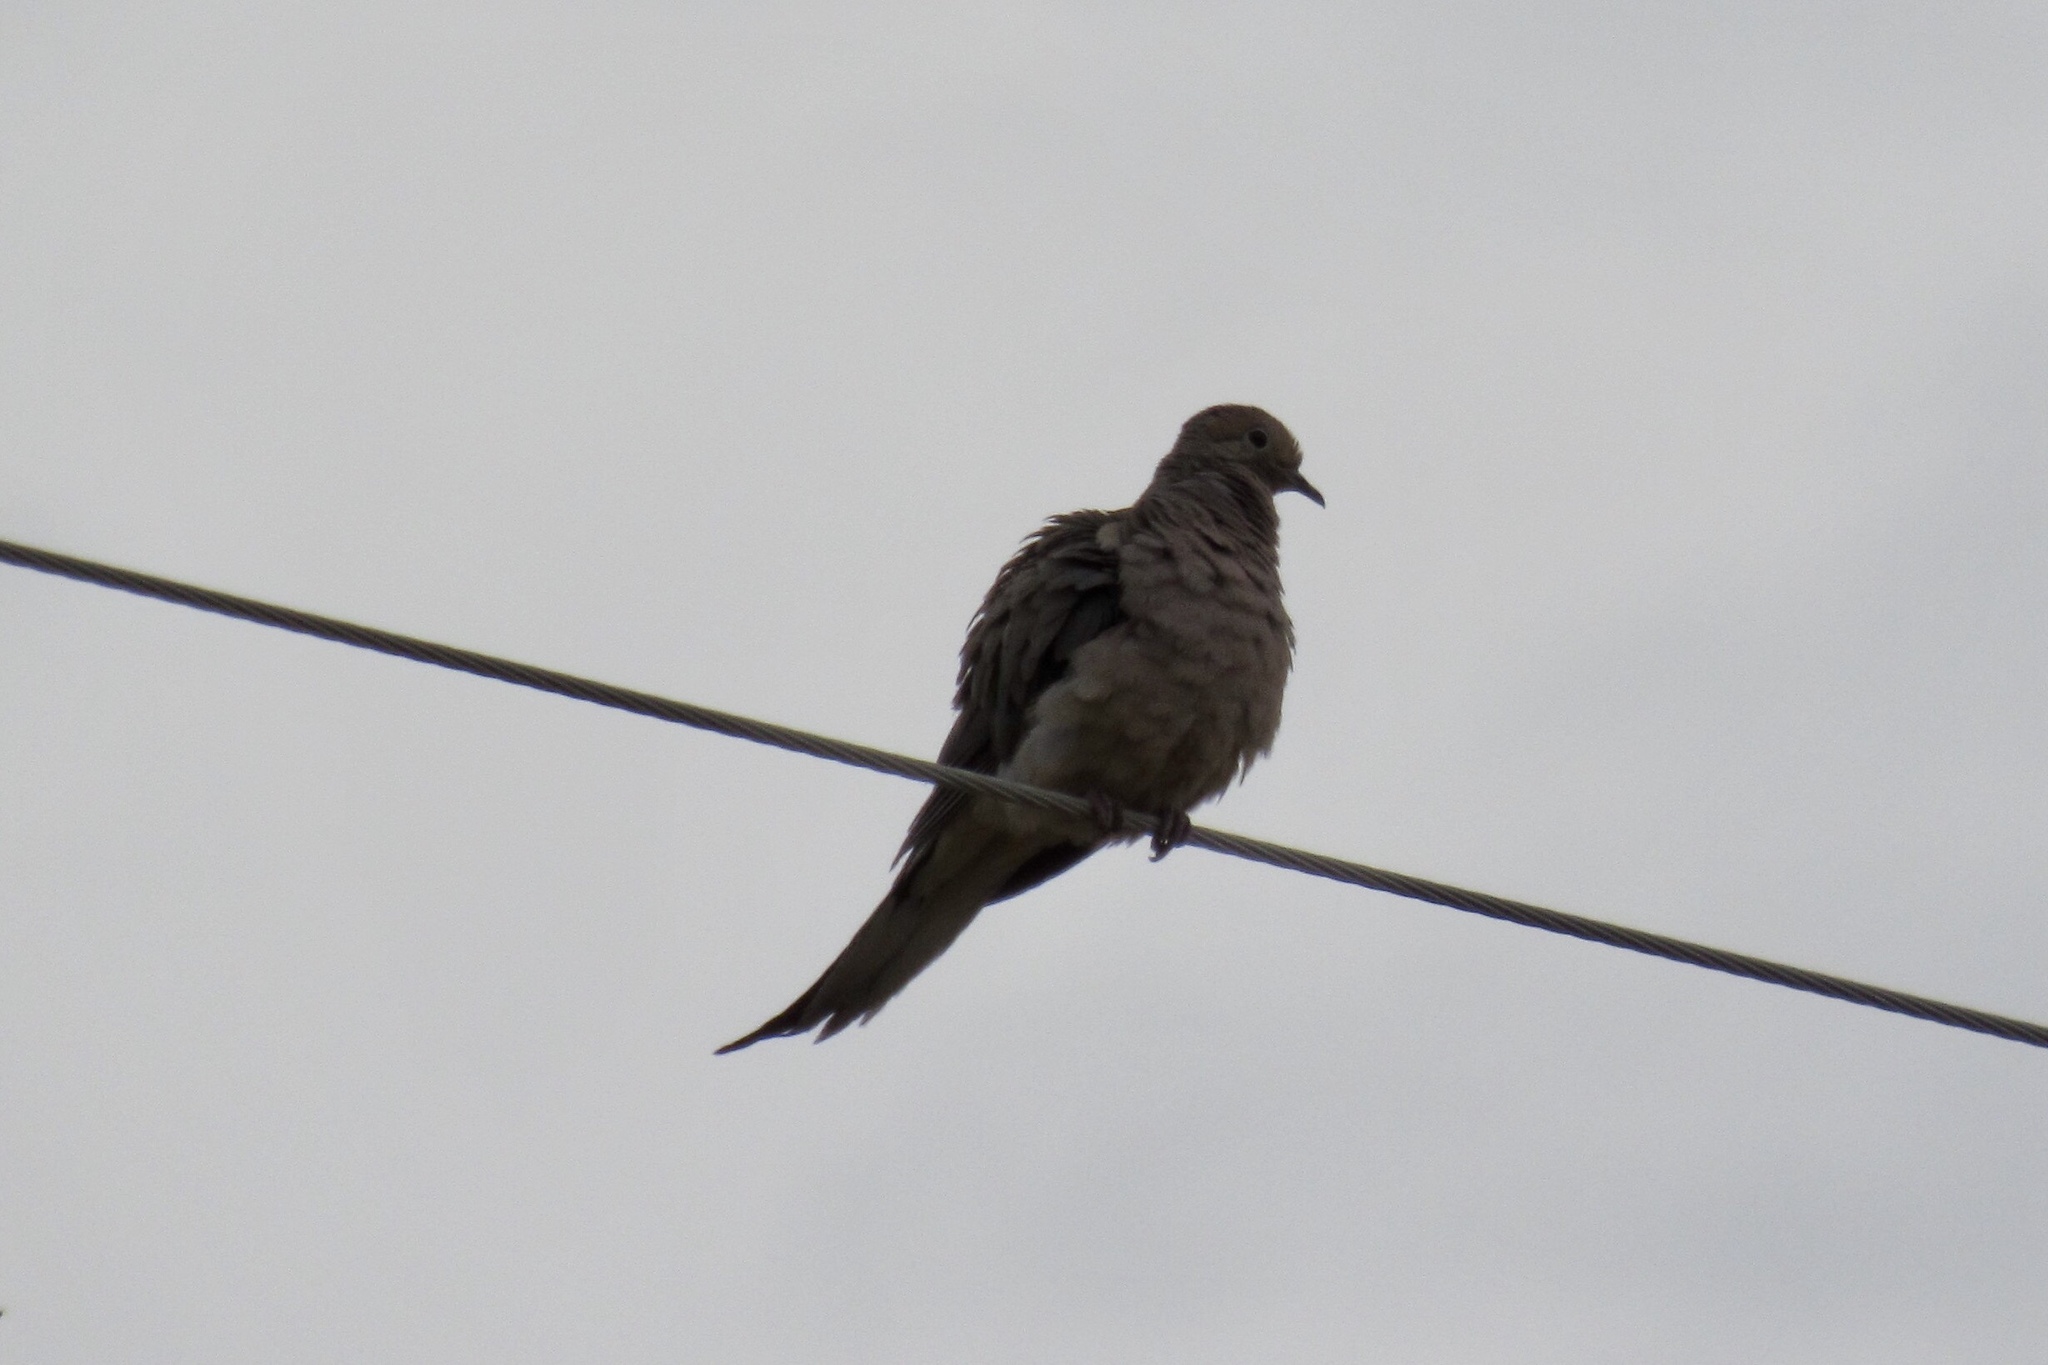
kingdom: Animalia
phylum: Chordata
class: Aves
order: Columbiformes
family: Columbidae
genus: Zenaida
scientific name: Zenaida macroura
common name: Mourning dove
